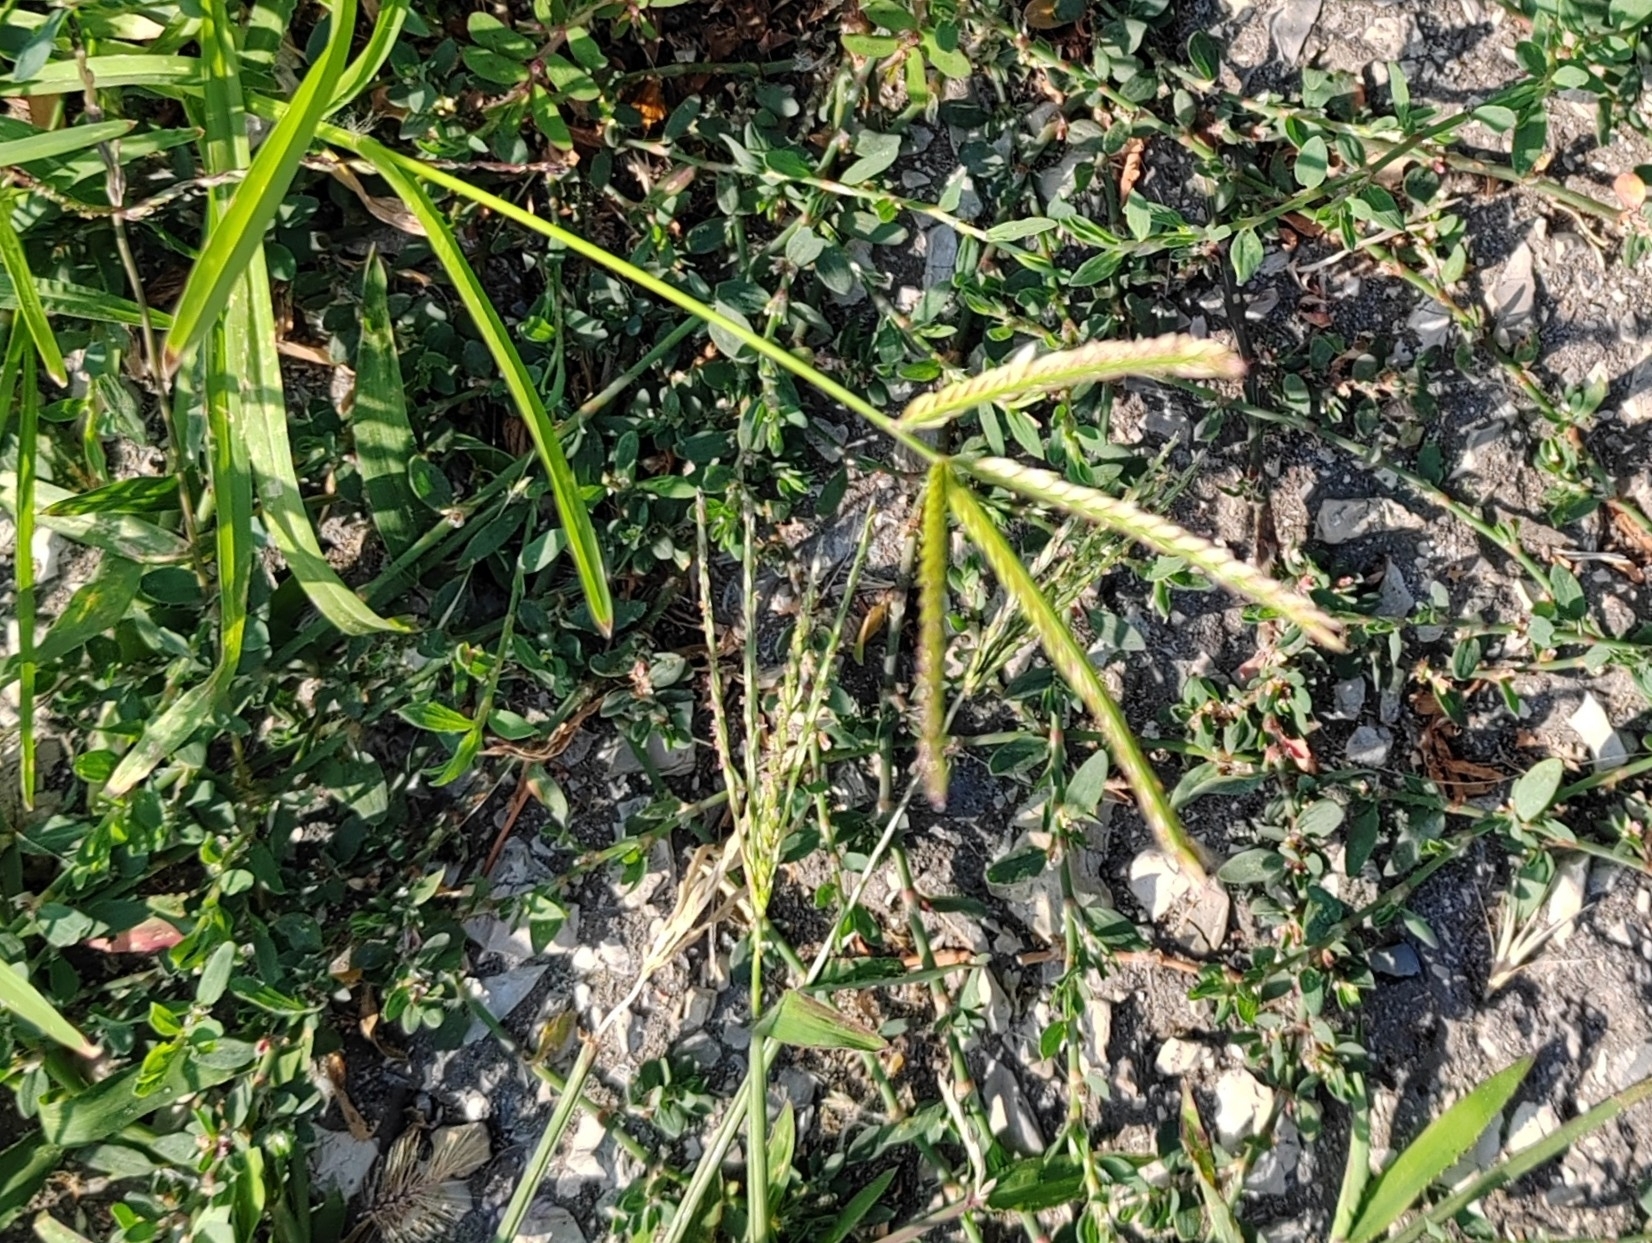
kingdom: Plantae
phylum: Tracheophyta
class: Liliopsida
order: Poales
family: Poaceae
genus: Eleusine
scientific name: Eleusine indica
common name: Yard-grass
